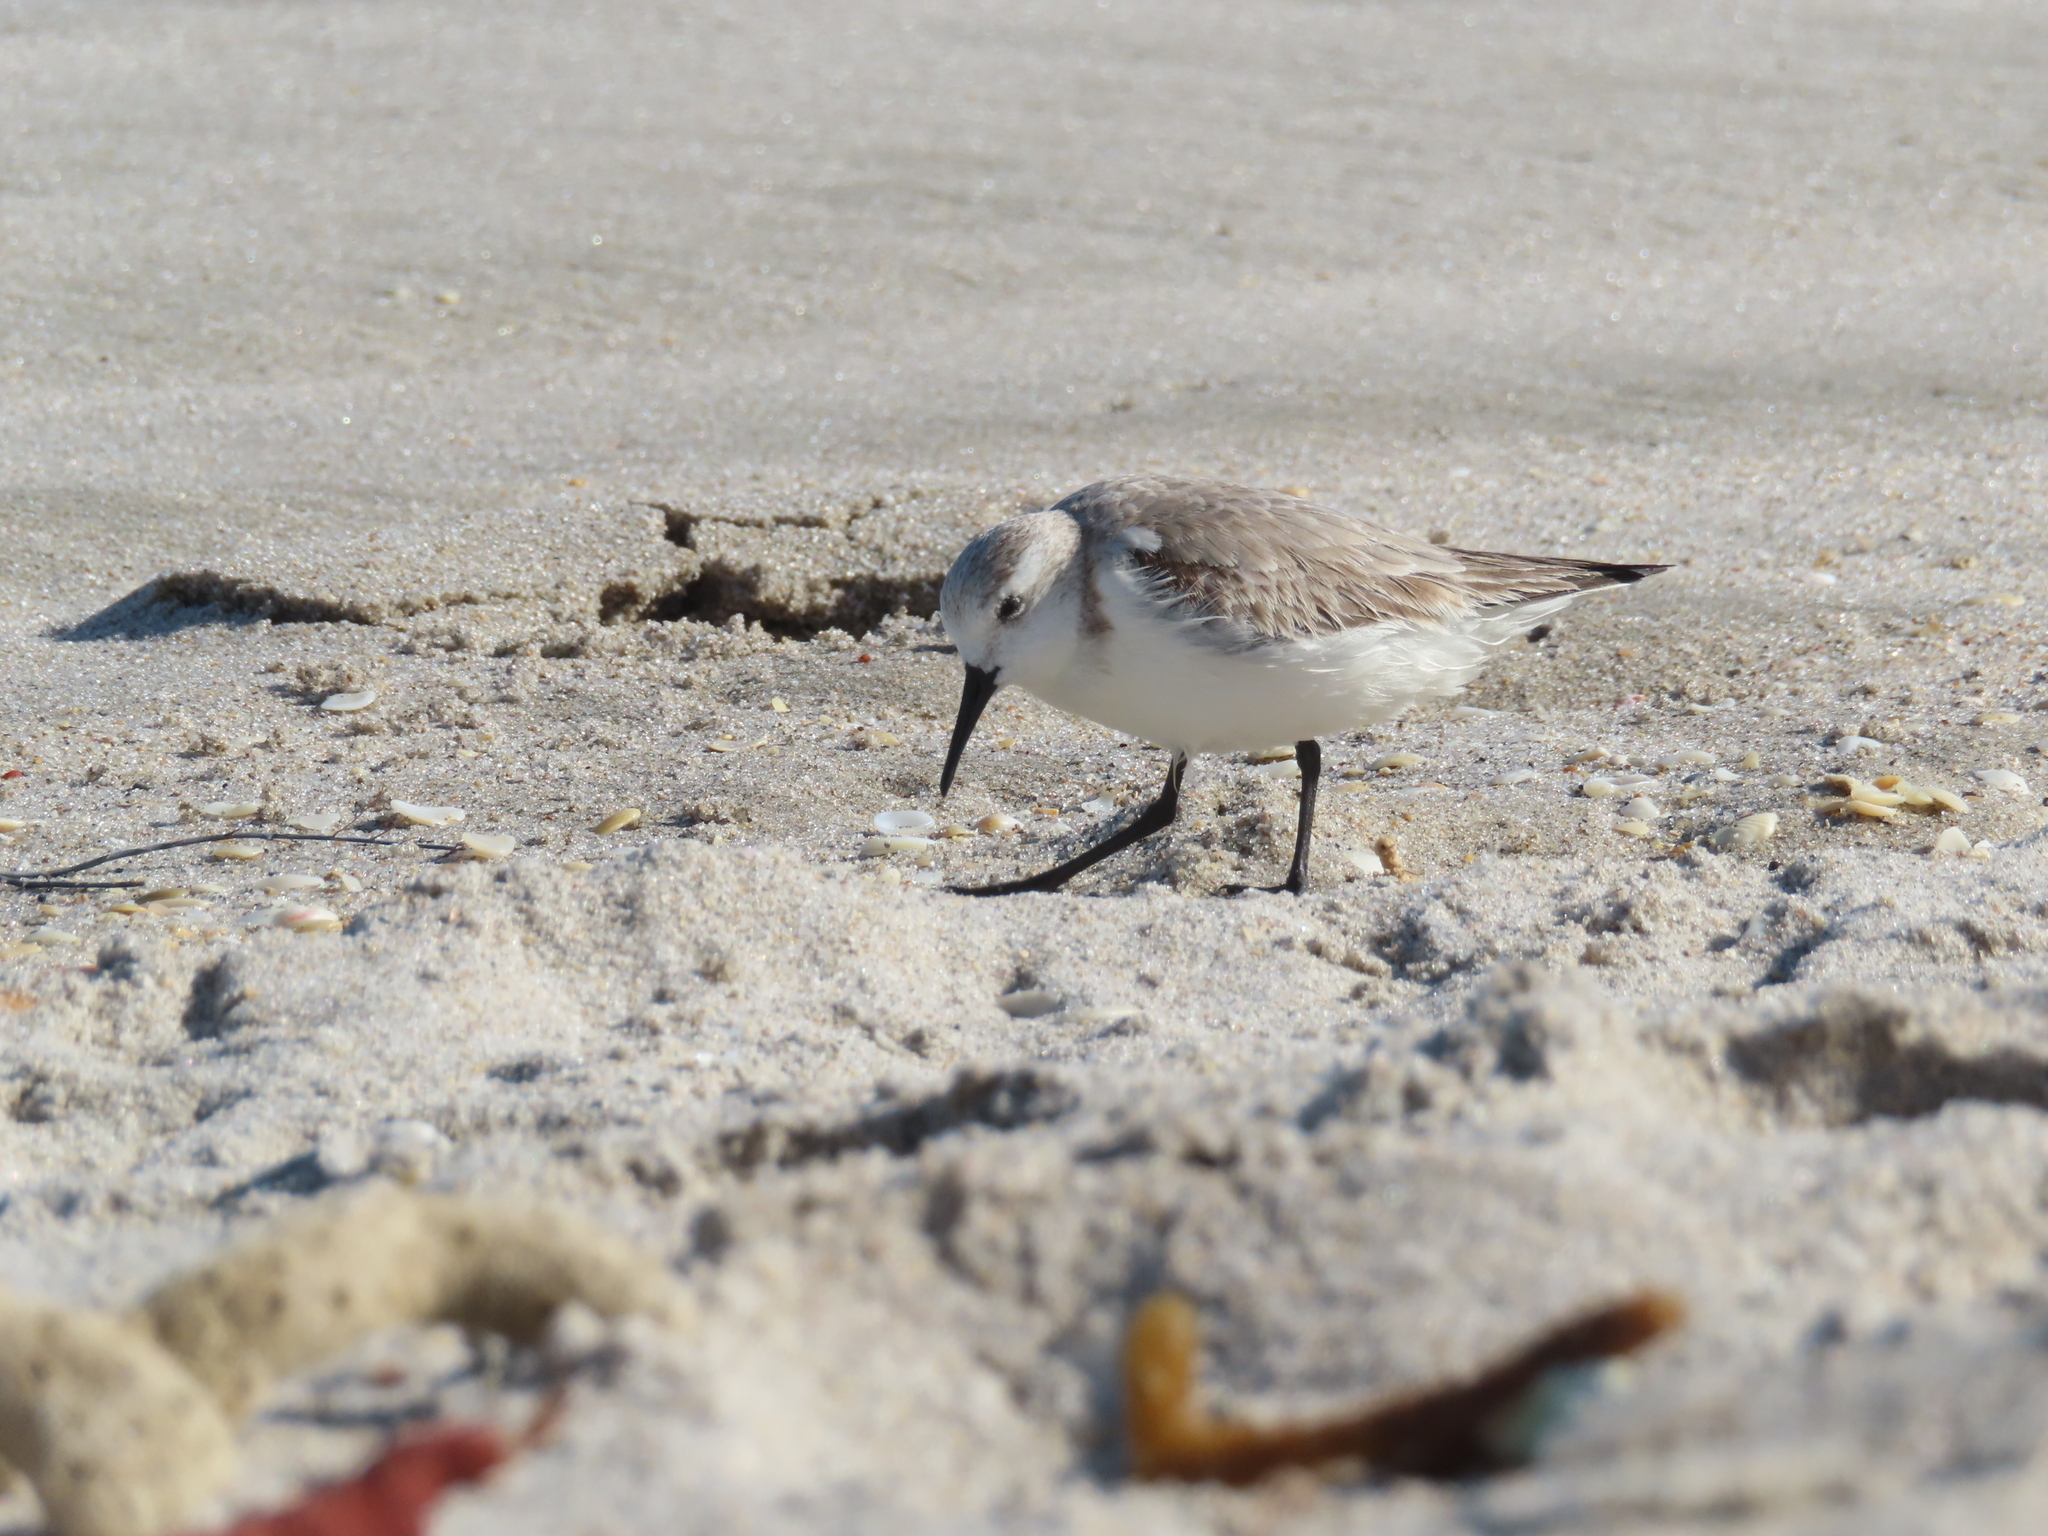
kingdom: Animalia
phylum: Chordata
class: Aves
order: Charadriiformes
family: Scolopacidae
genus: Calidris
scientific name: Calidris alba
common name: Sanderling
